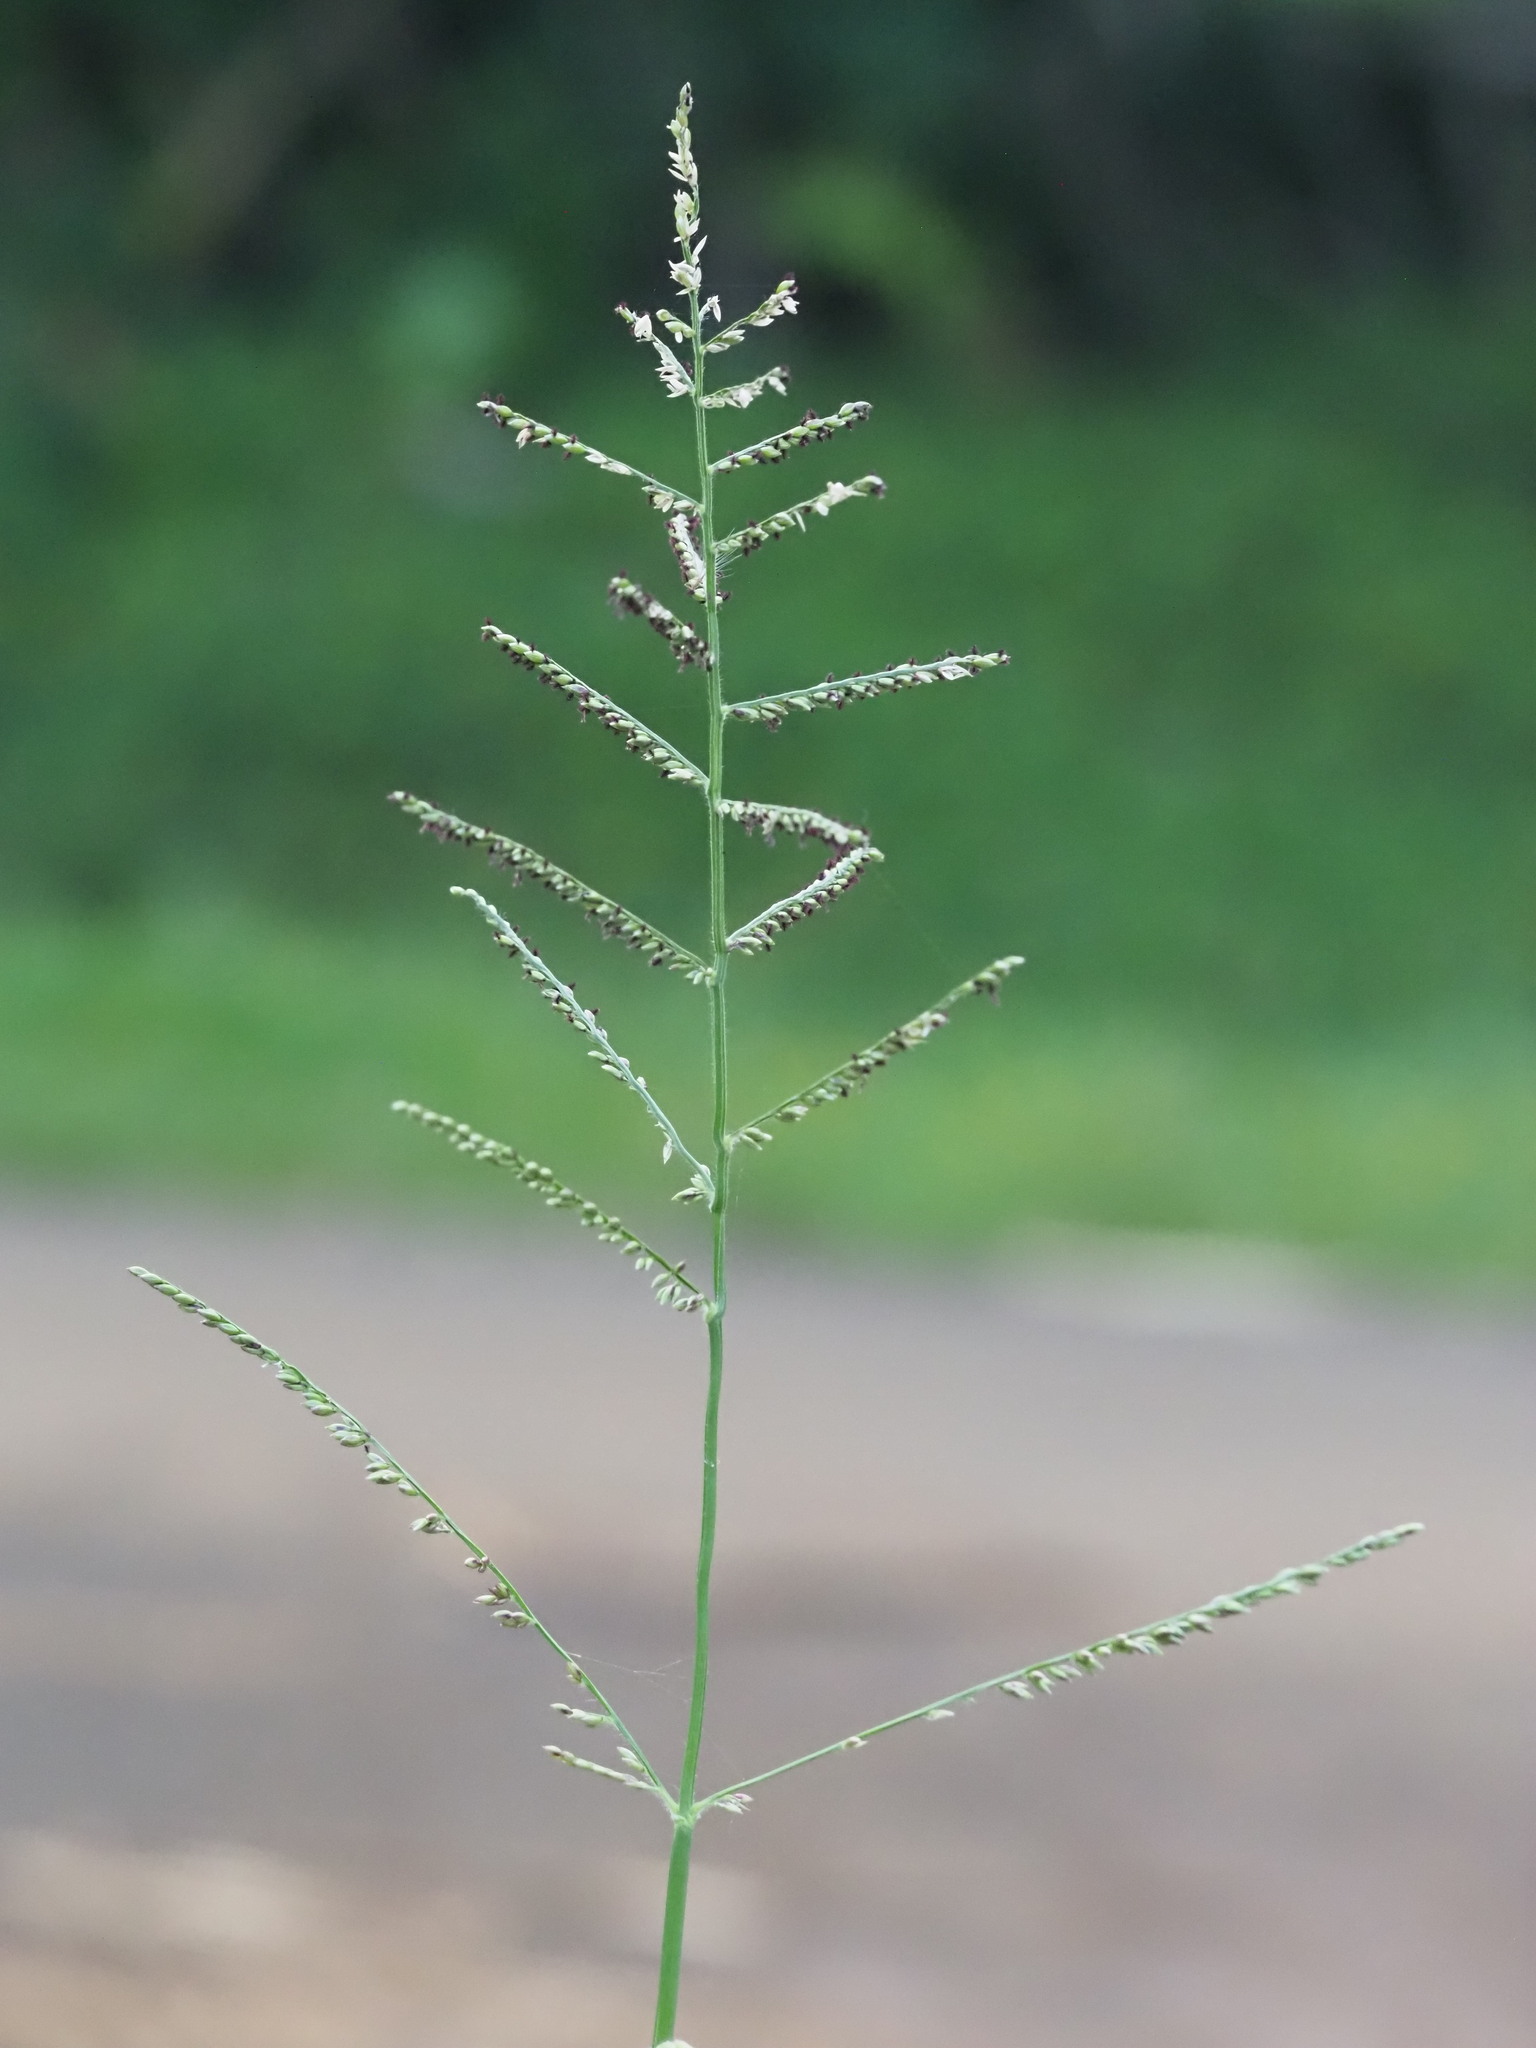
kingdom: Plantae
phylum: Tracheophyta
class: Liliopsida
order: Poales
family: Poaceae
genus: Urochloa
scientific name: Urochloa mutica
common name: Para grass
